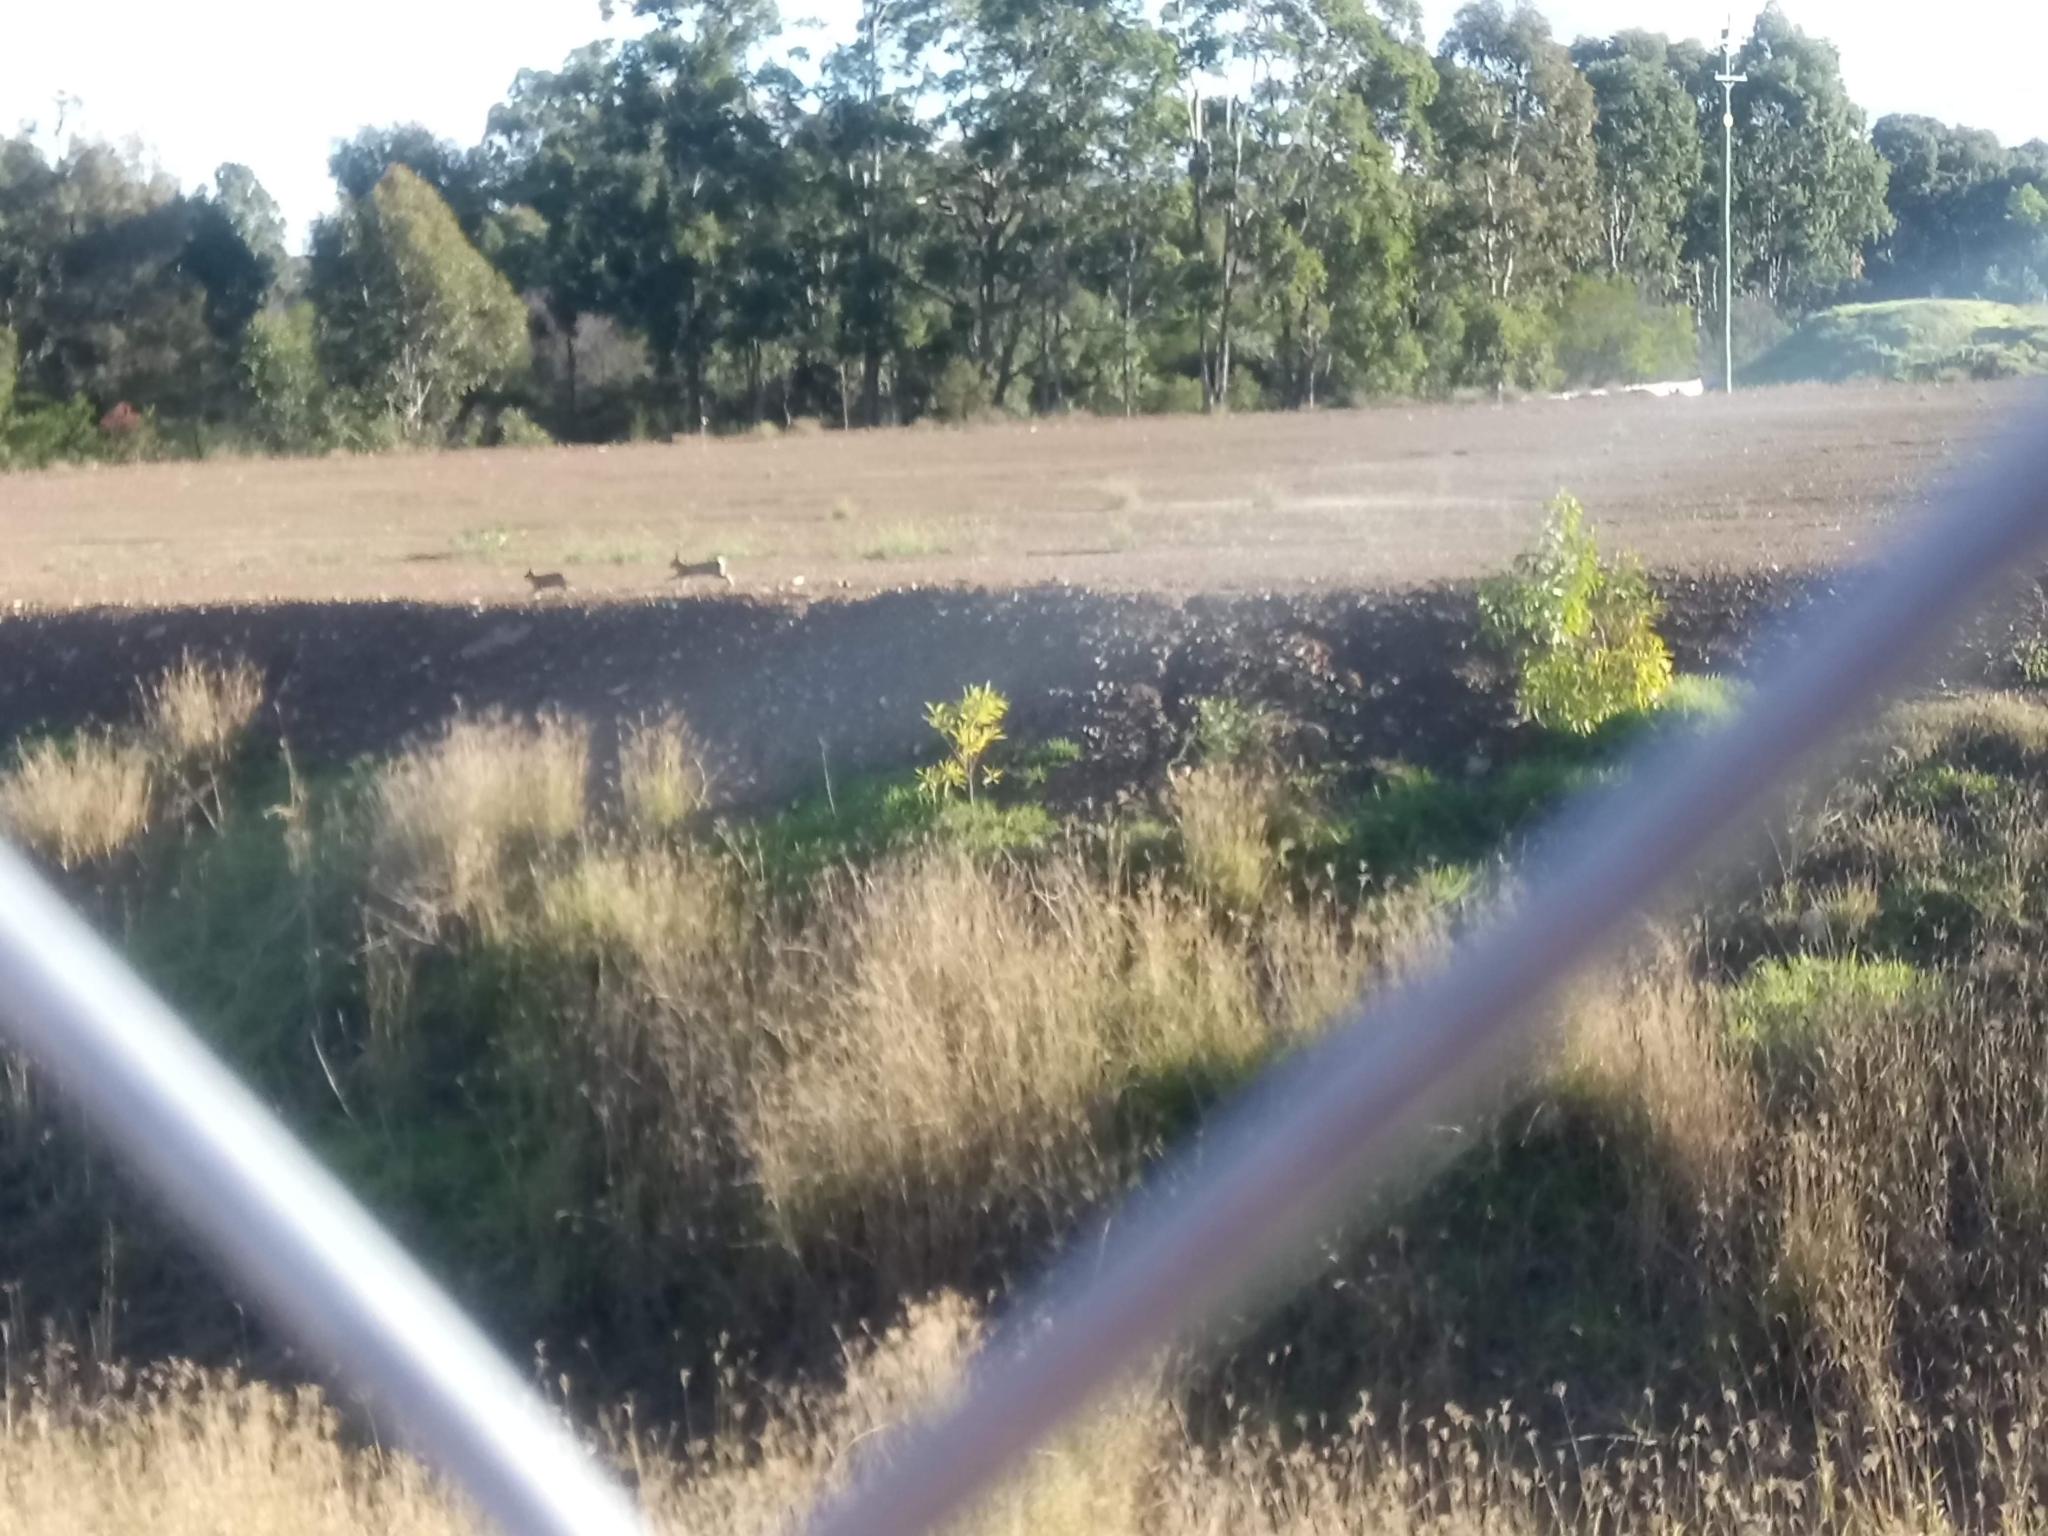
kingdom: Animalia
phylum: Chordata
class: Mammalia
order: Lagomorpha
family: Leporidae
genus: Oryctolagus
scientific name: Oryctolagus cuniculus
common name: European rabbit
